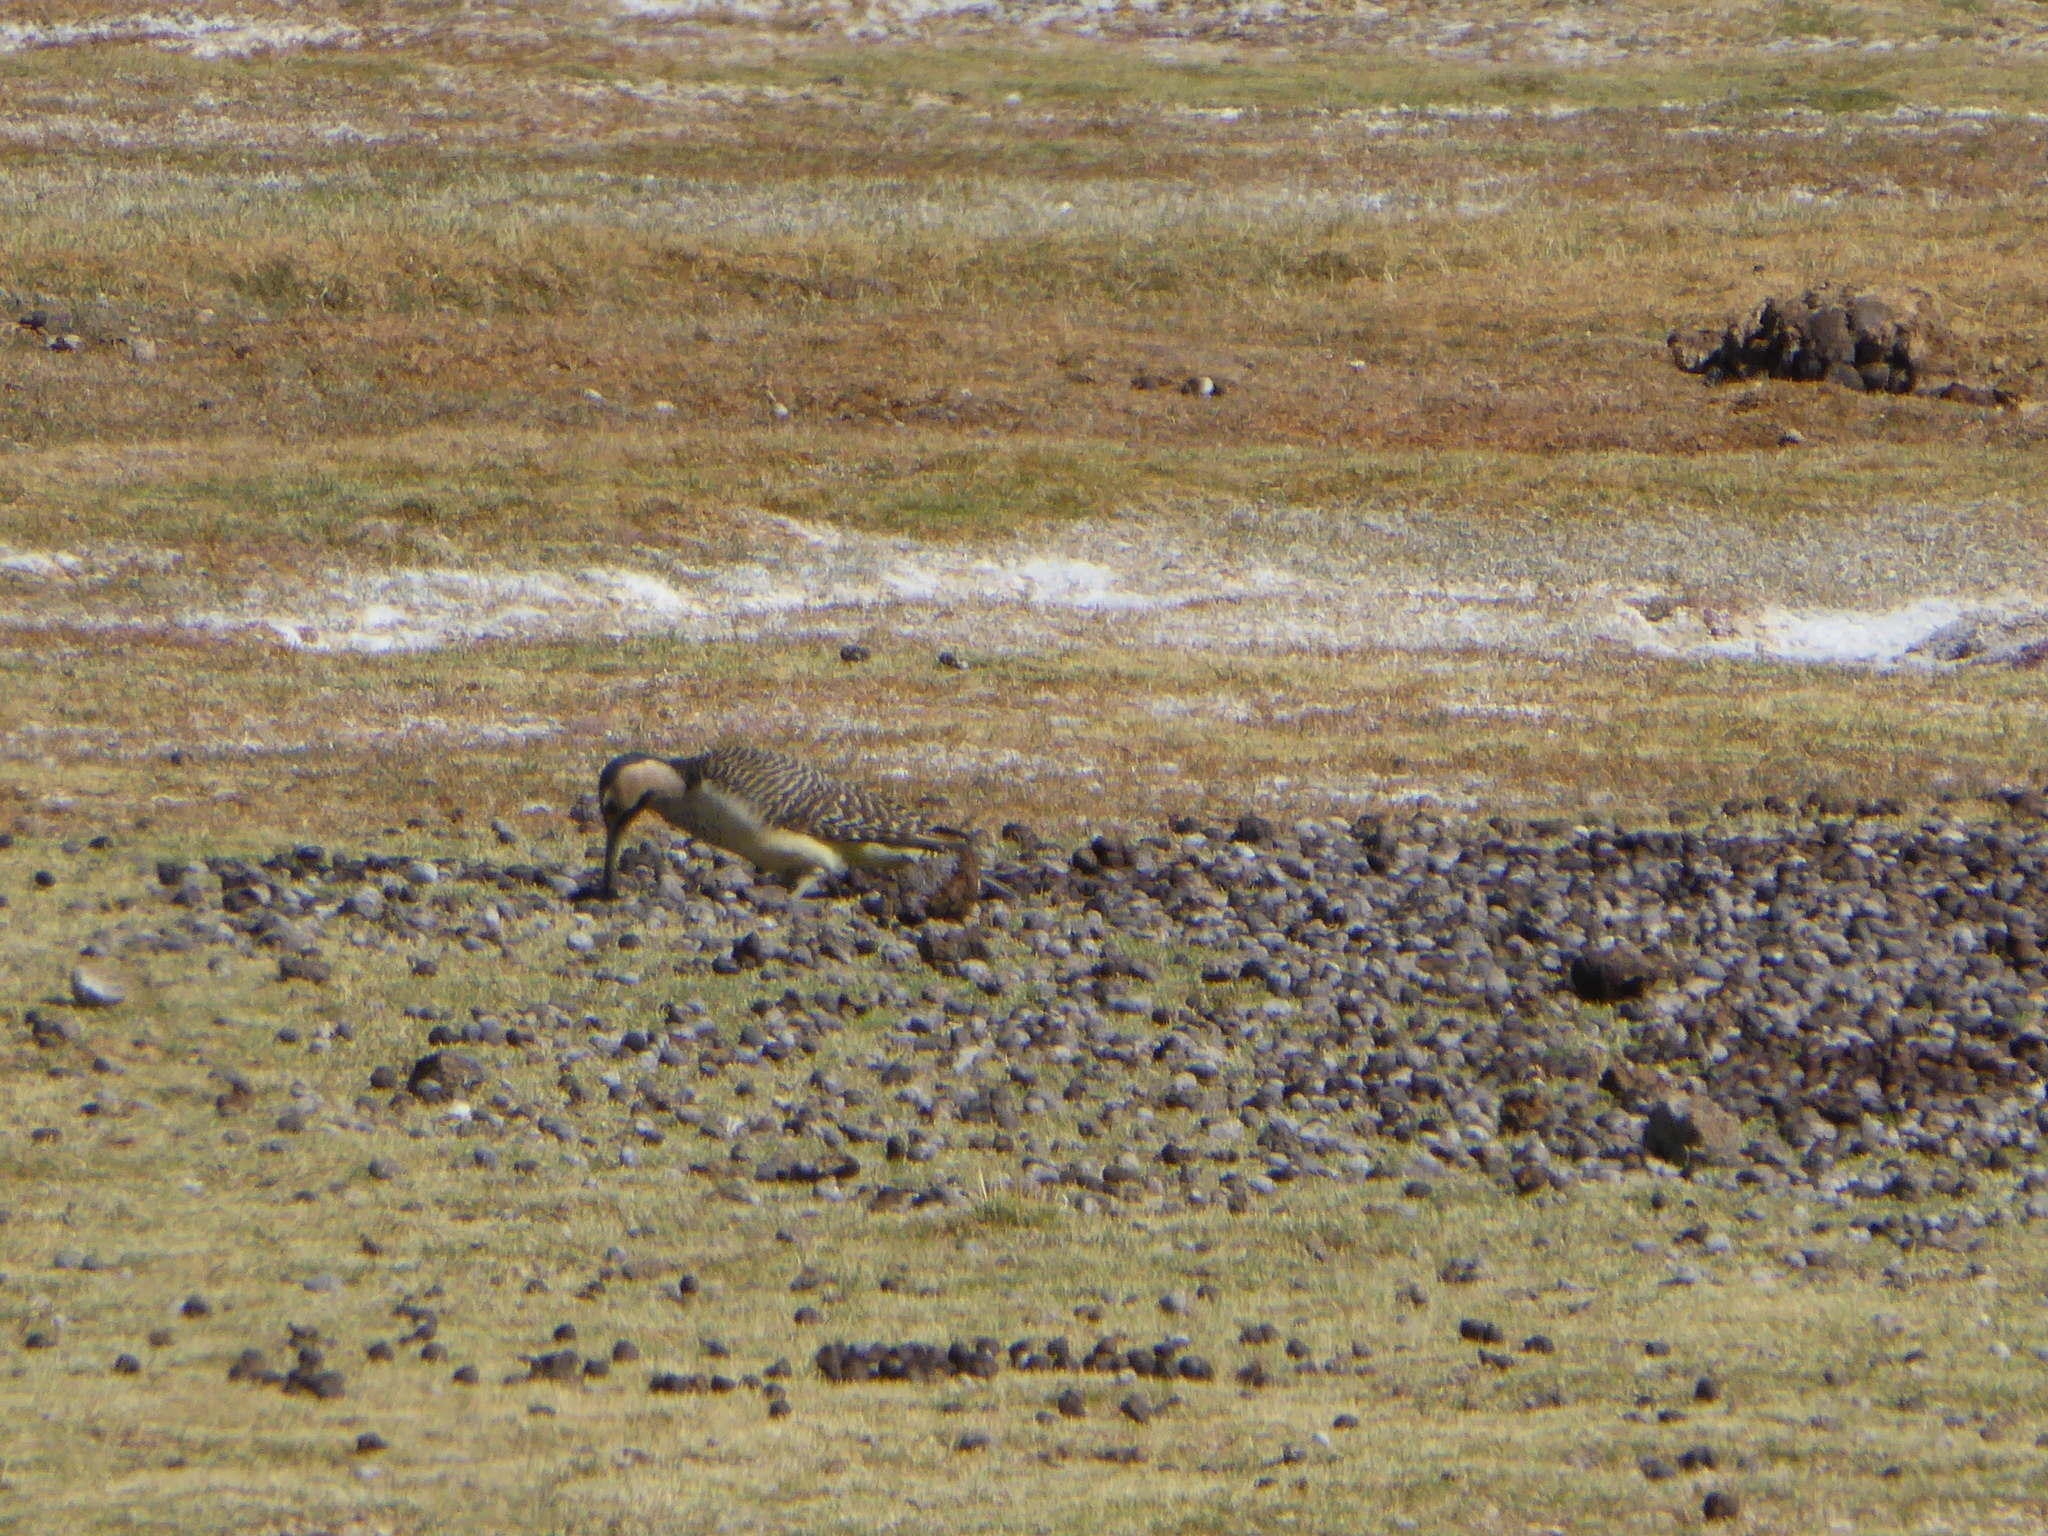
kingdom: Animalia
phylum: Chordata
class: Aves
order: Piciformes
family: Picidae
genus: Colaptes
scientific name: Colaptes rupicola
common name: Andean flicker
